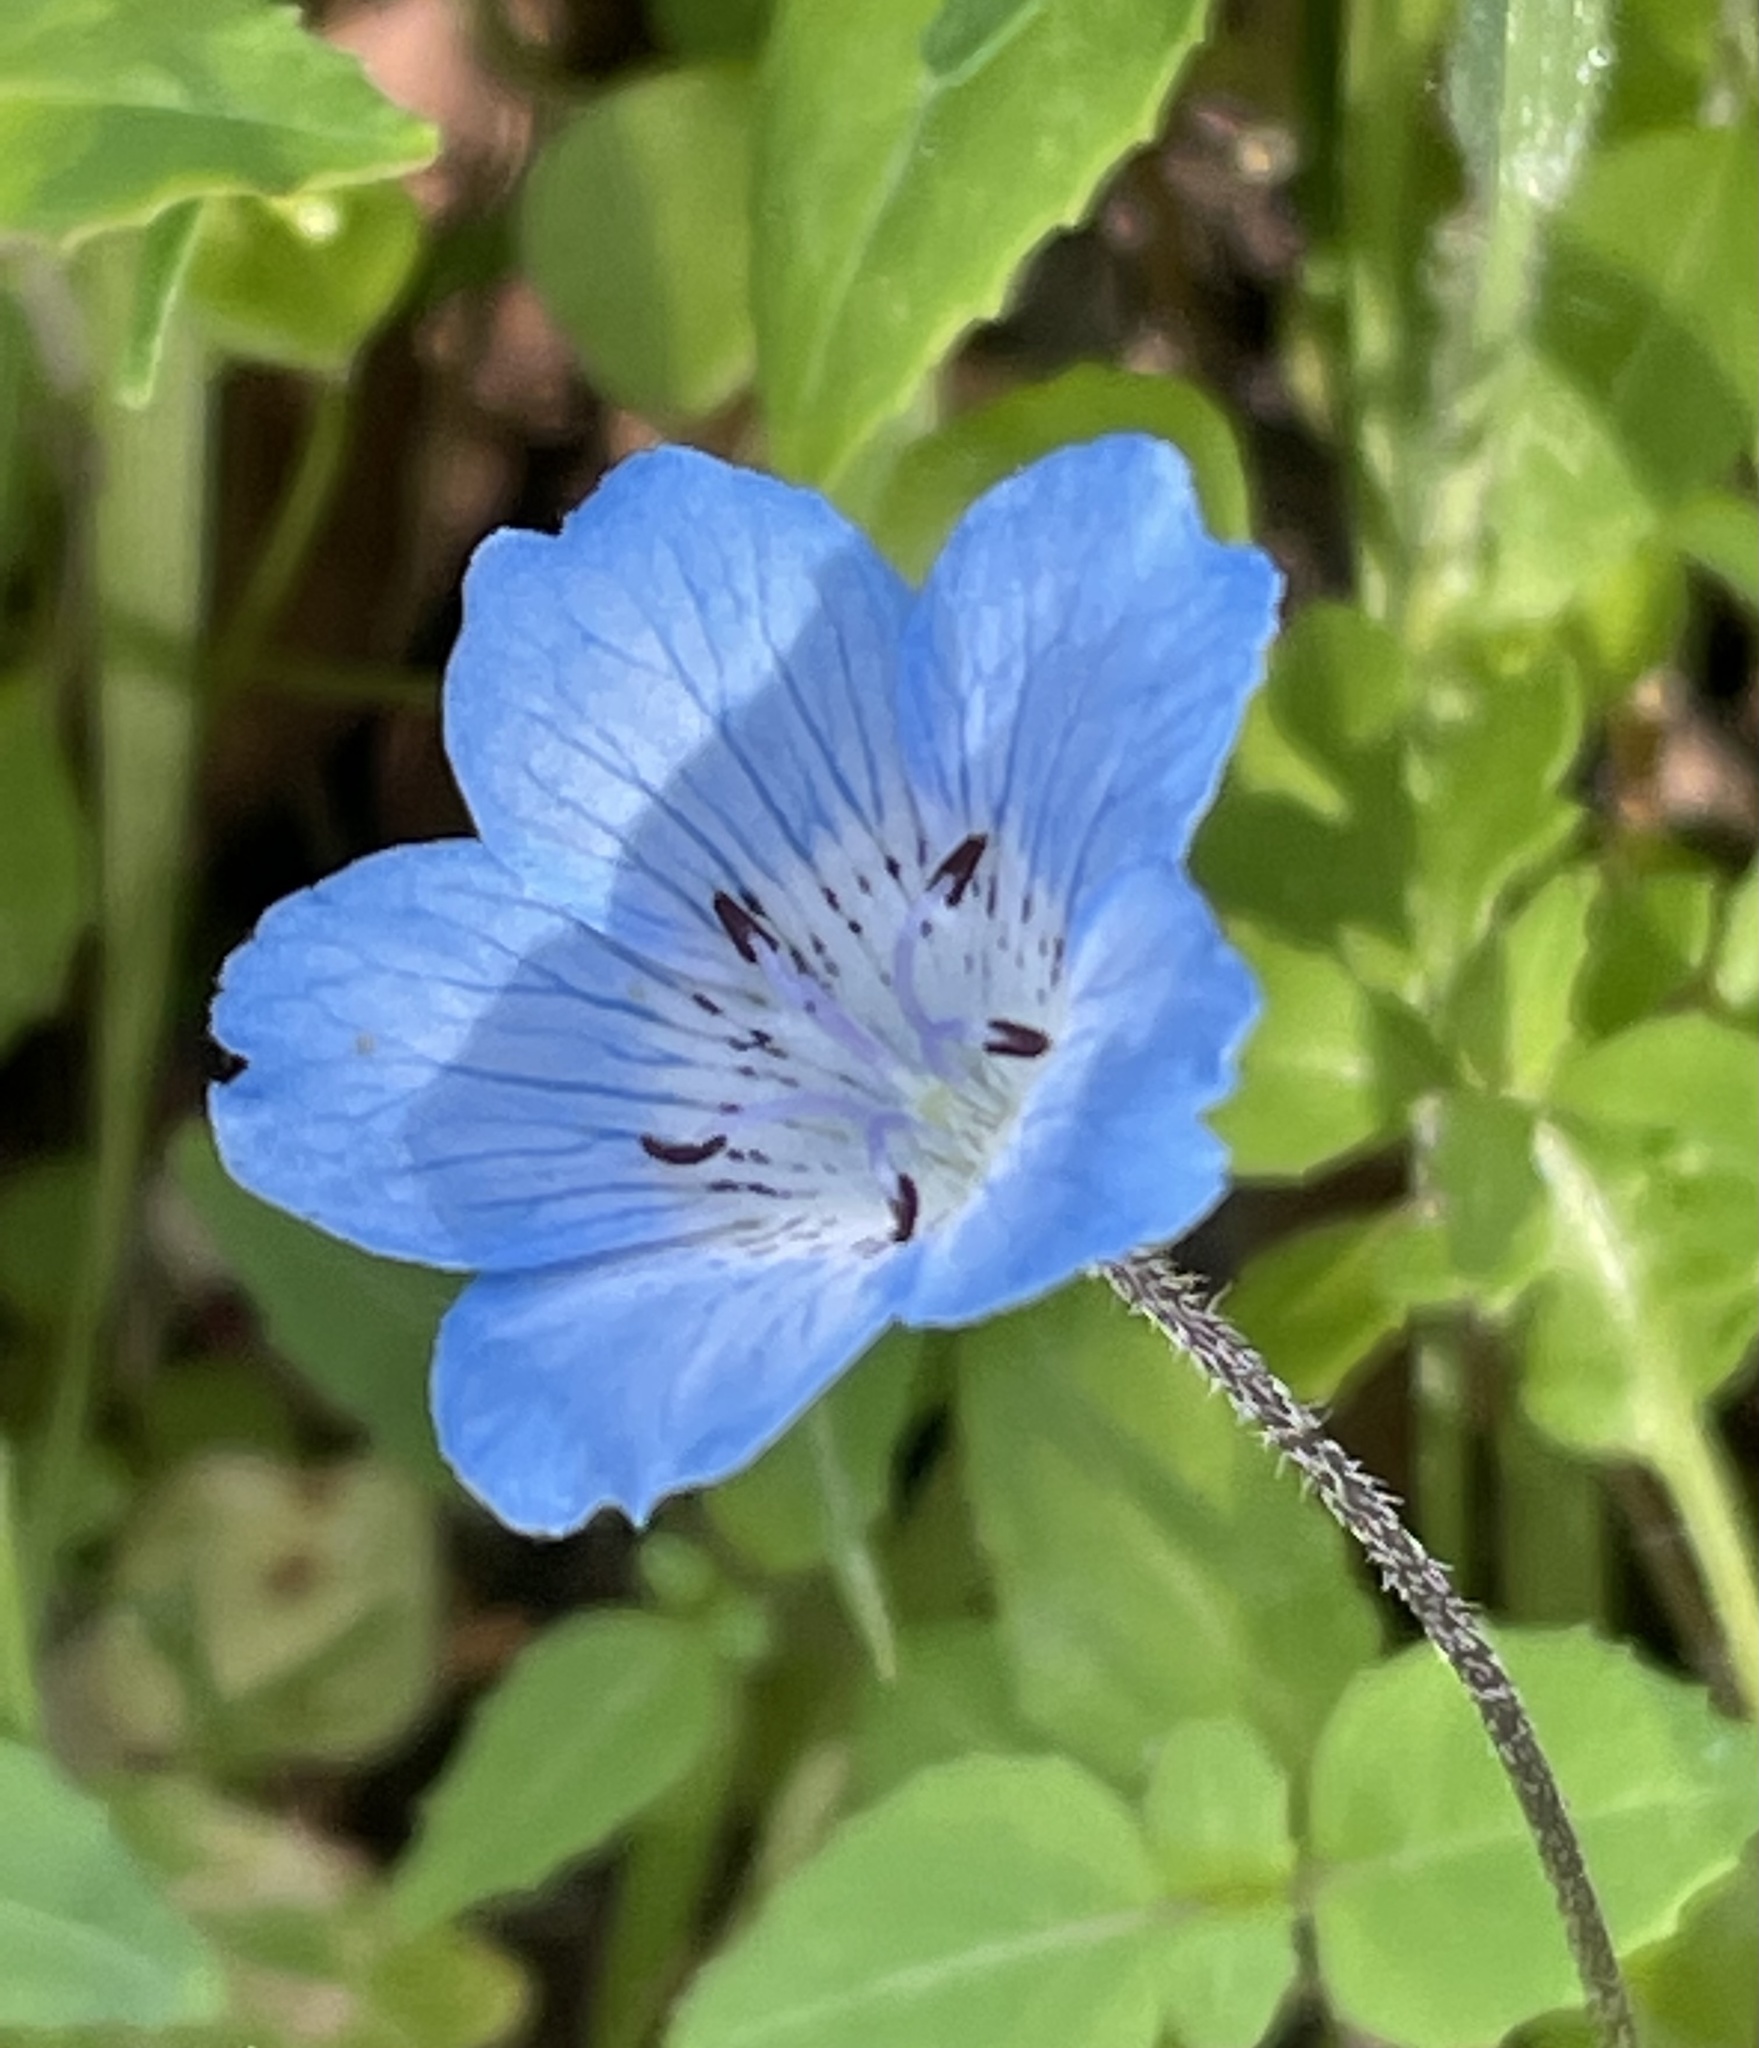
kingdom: Plantae
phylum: Tracheophyta
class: Magnoliopsida
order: Boraginales
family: Hydrophyllaceae
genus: Nemophila
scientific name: Nemophila menziesii
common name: Baby's-blue-eyes
